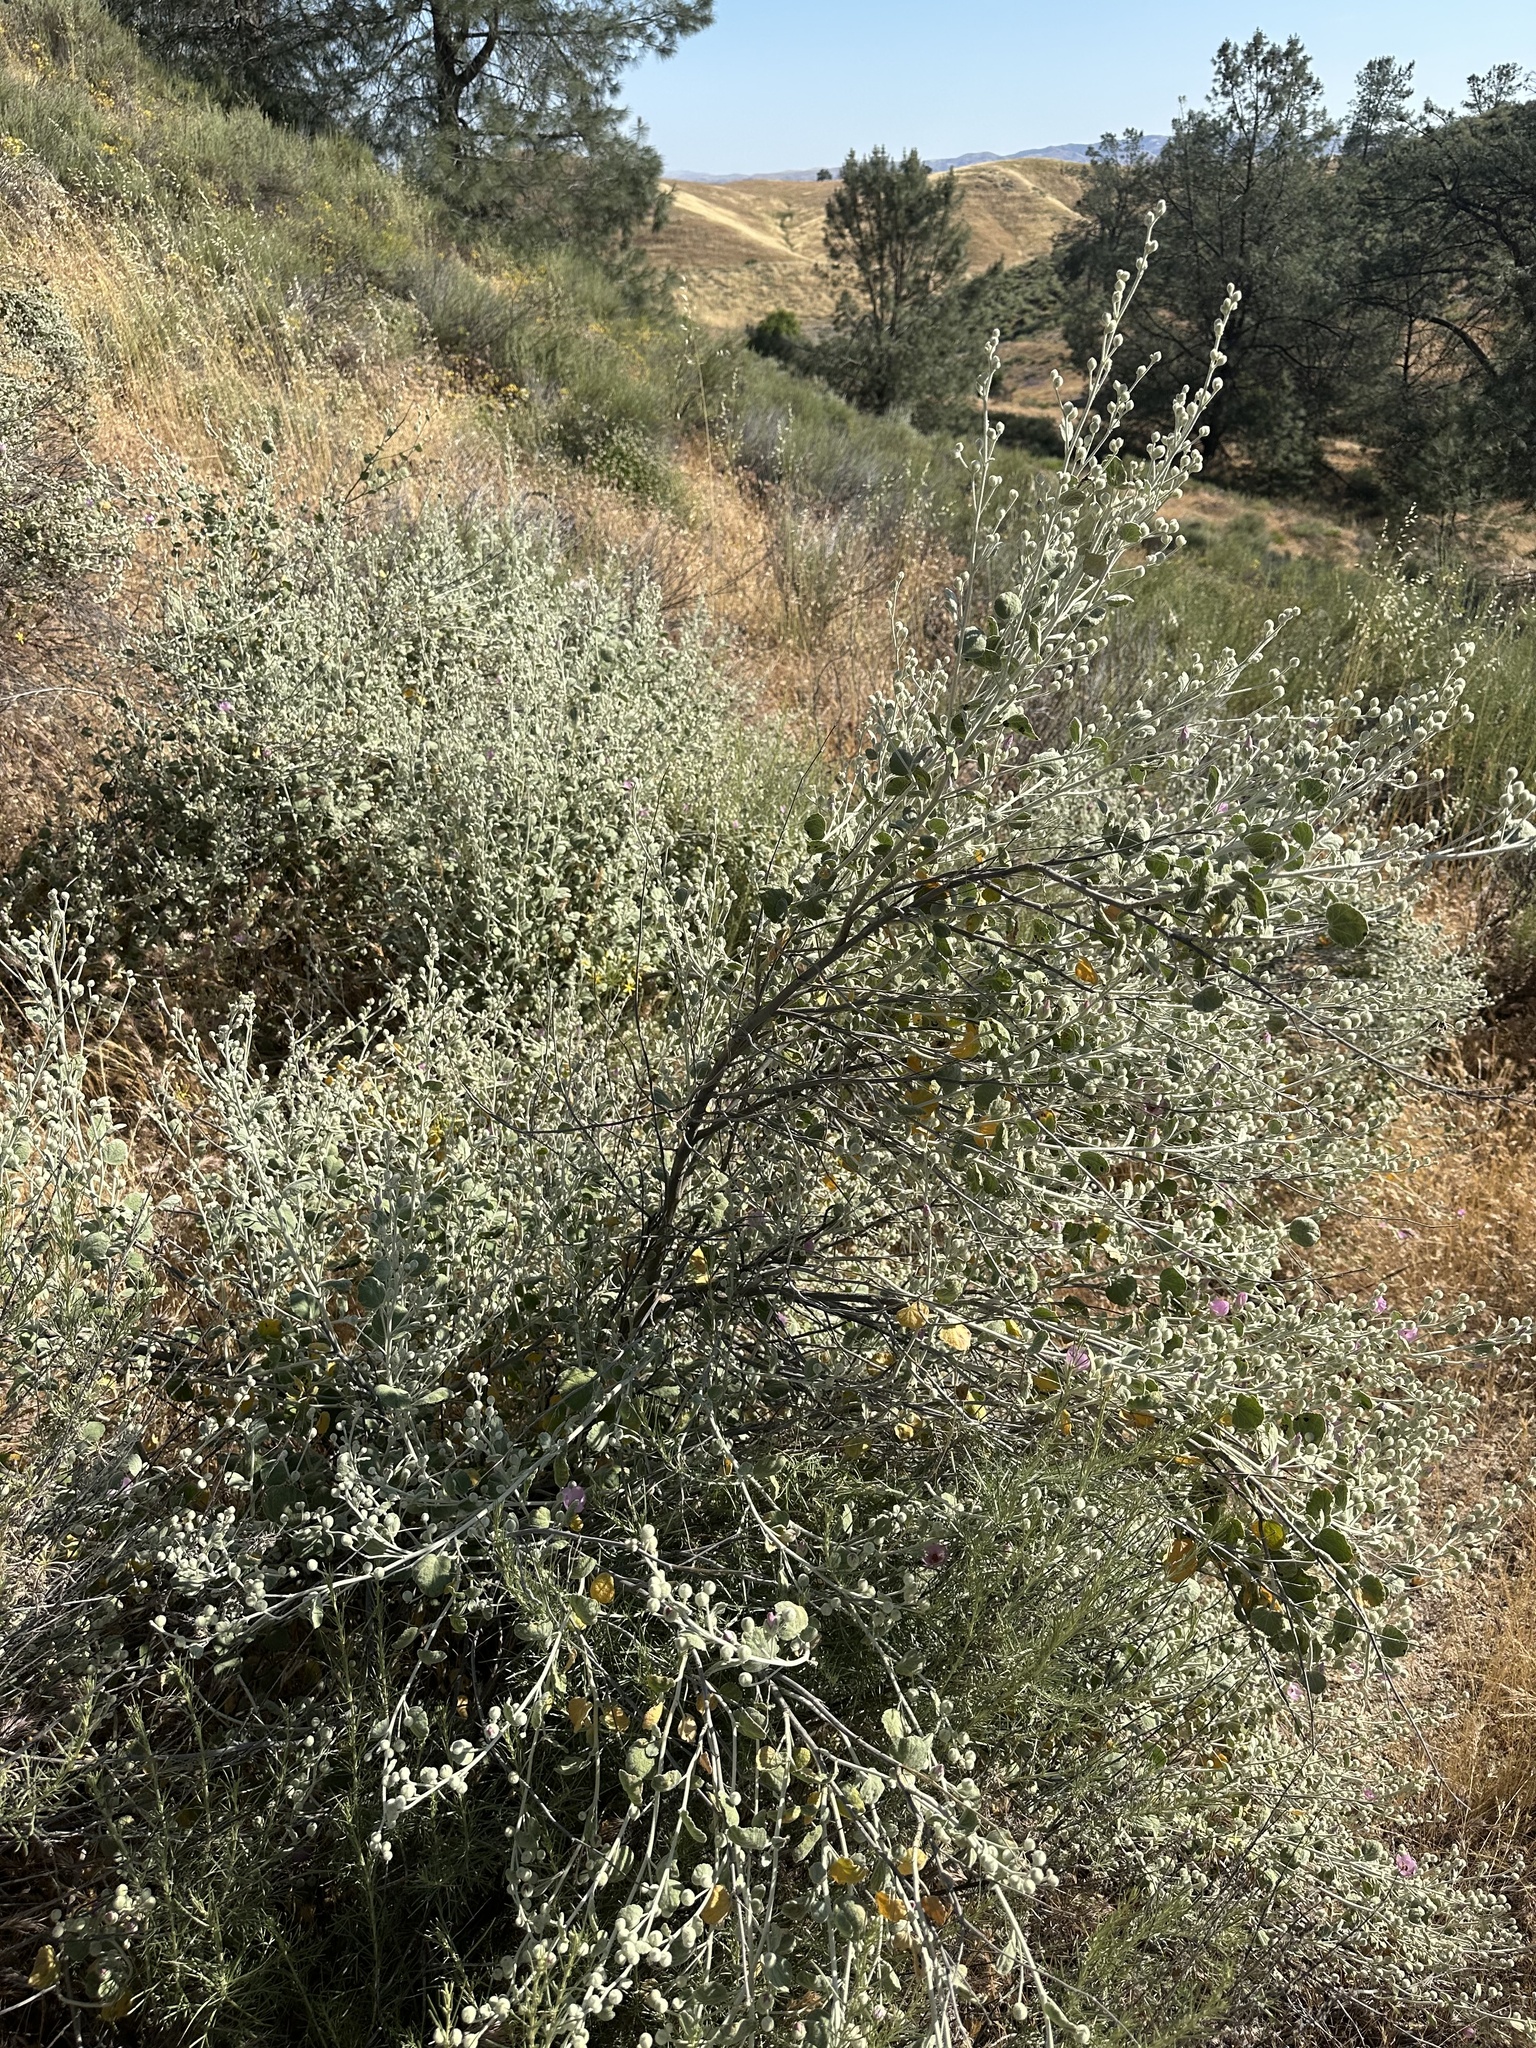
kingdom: Plantae
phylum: Tracheophyta
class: Magnoliopsida
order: Malvales
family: Malvaceae
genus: Malacothamnus
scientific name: Malacothamnus jonesii
